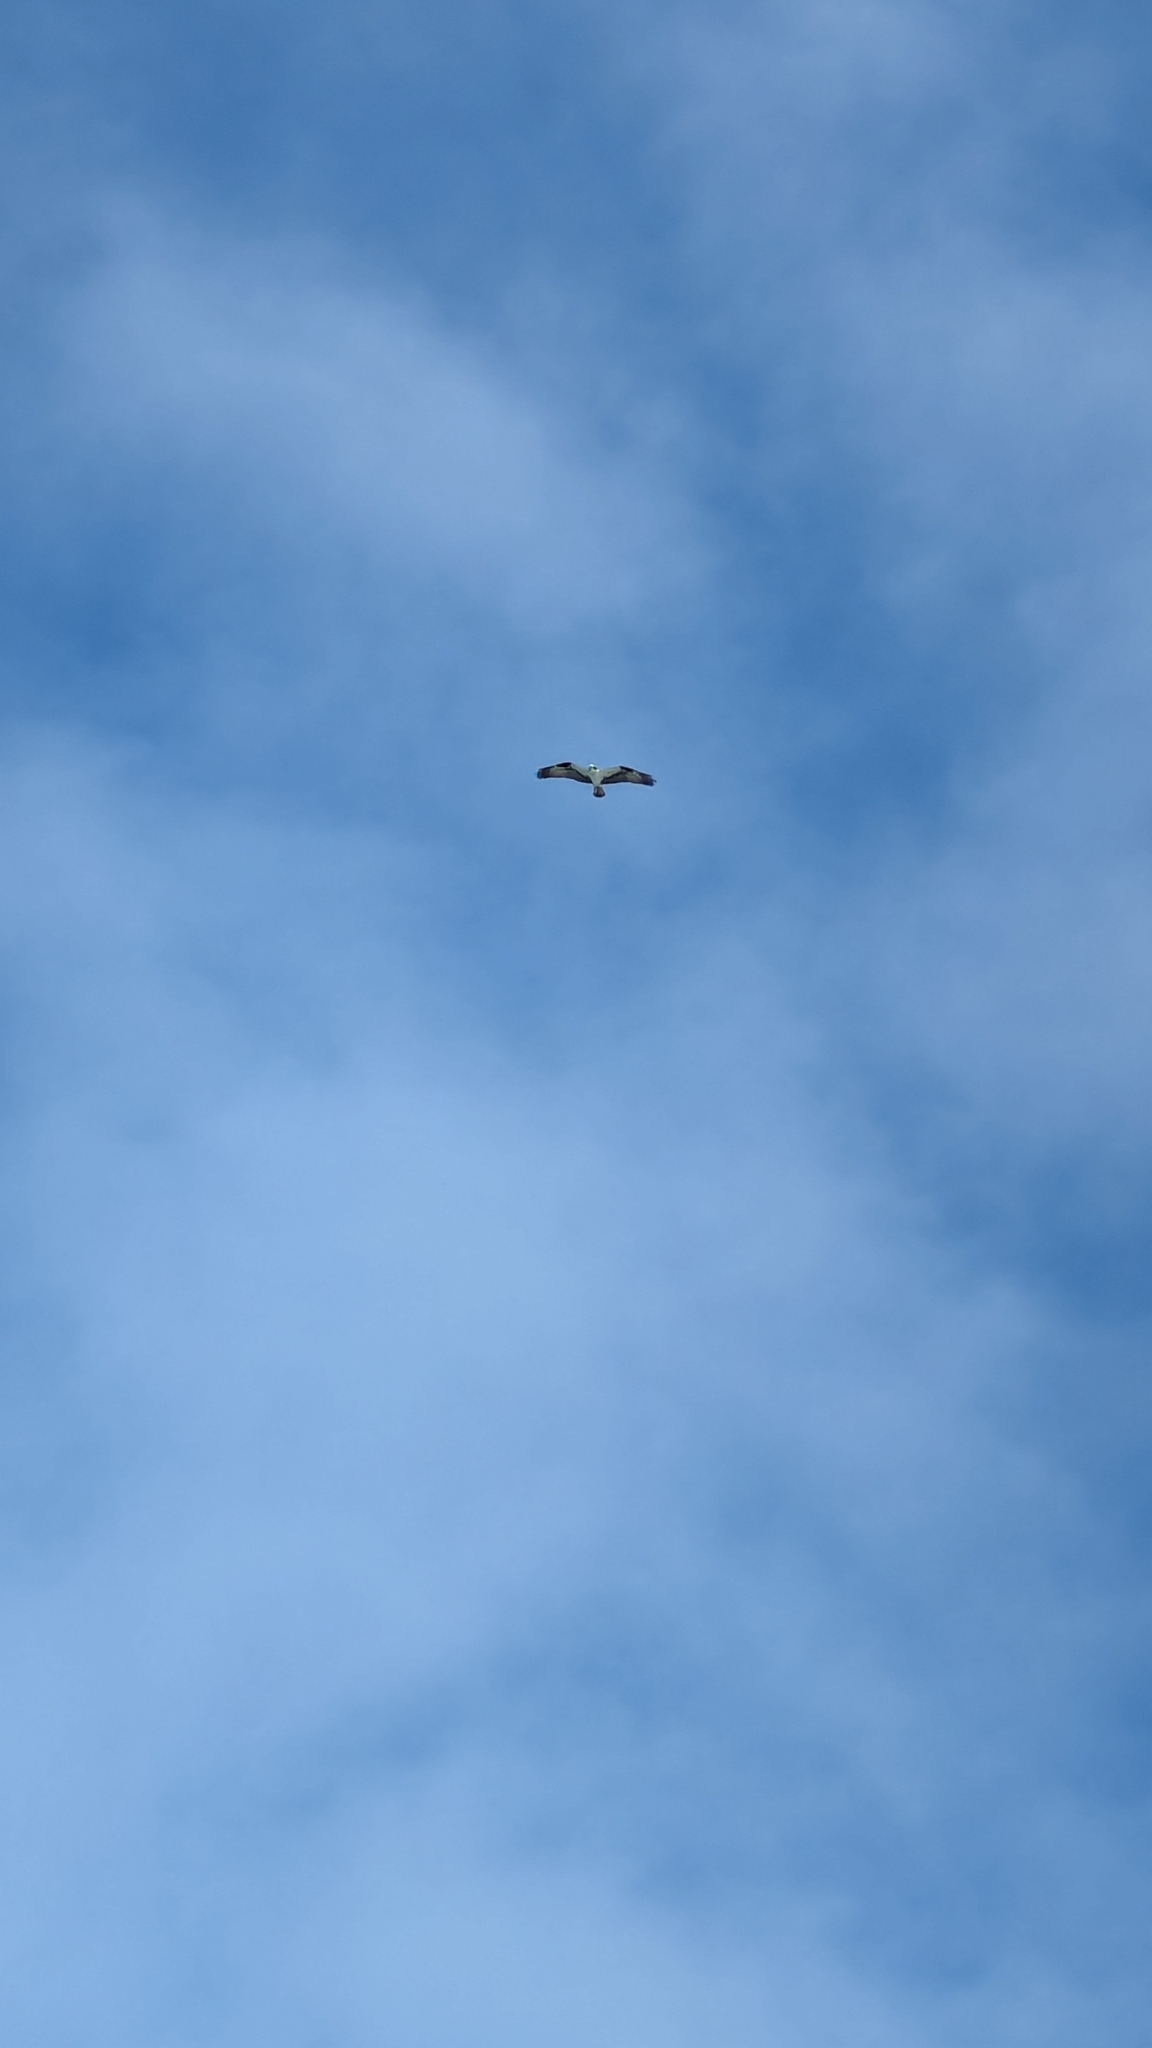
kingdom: Animalia
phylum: Chordata
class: Aves
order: Accipitriformes
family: Pandionidae
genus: Pandion
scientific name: Pandion haliaetus
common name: Osprey
